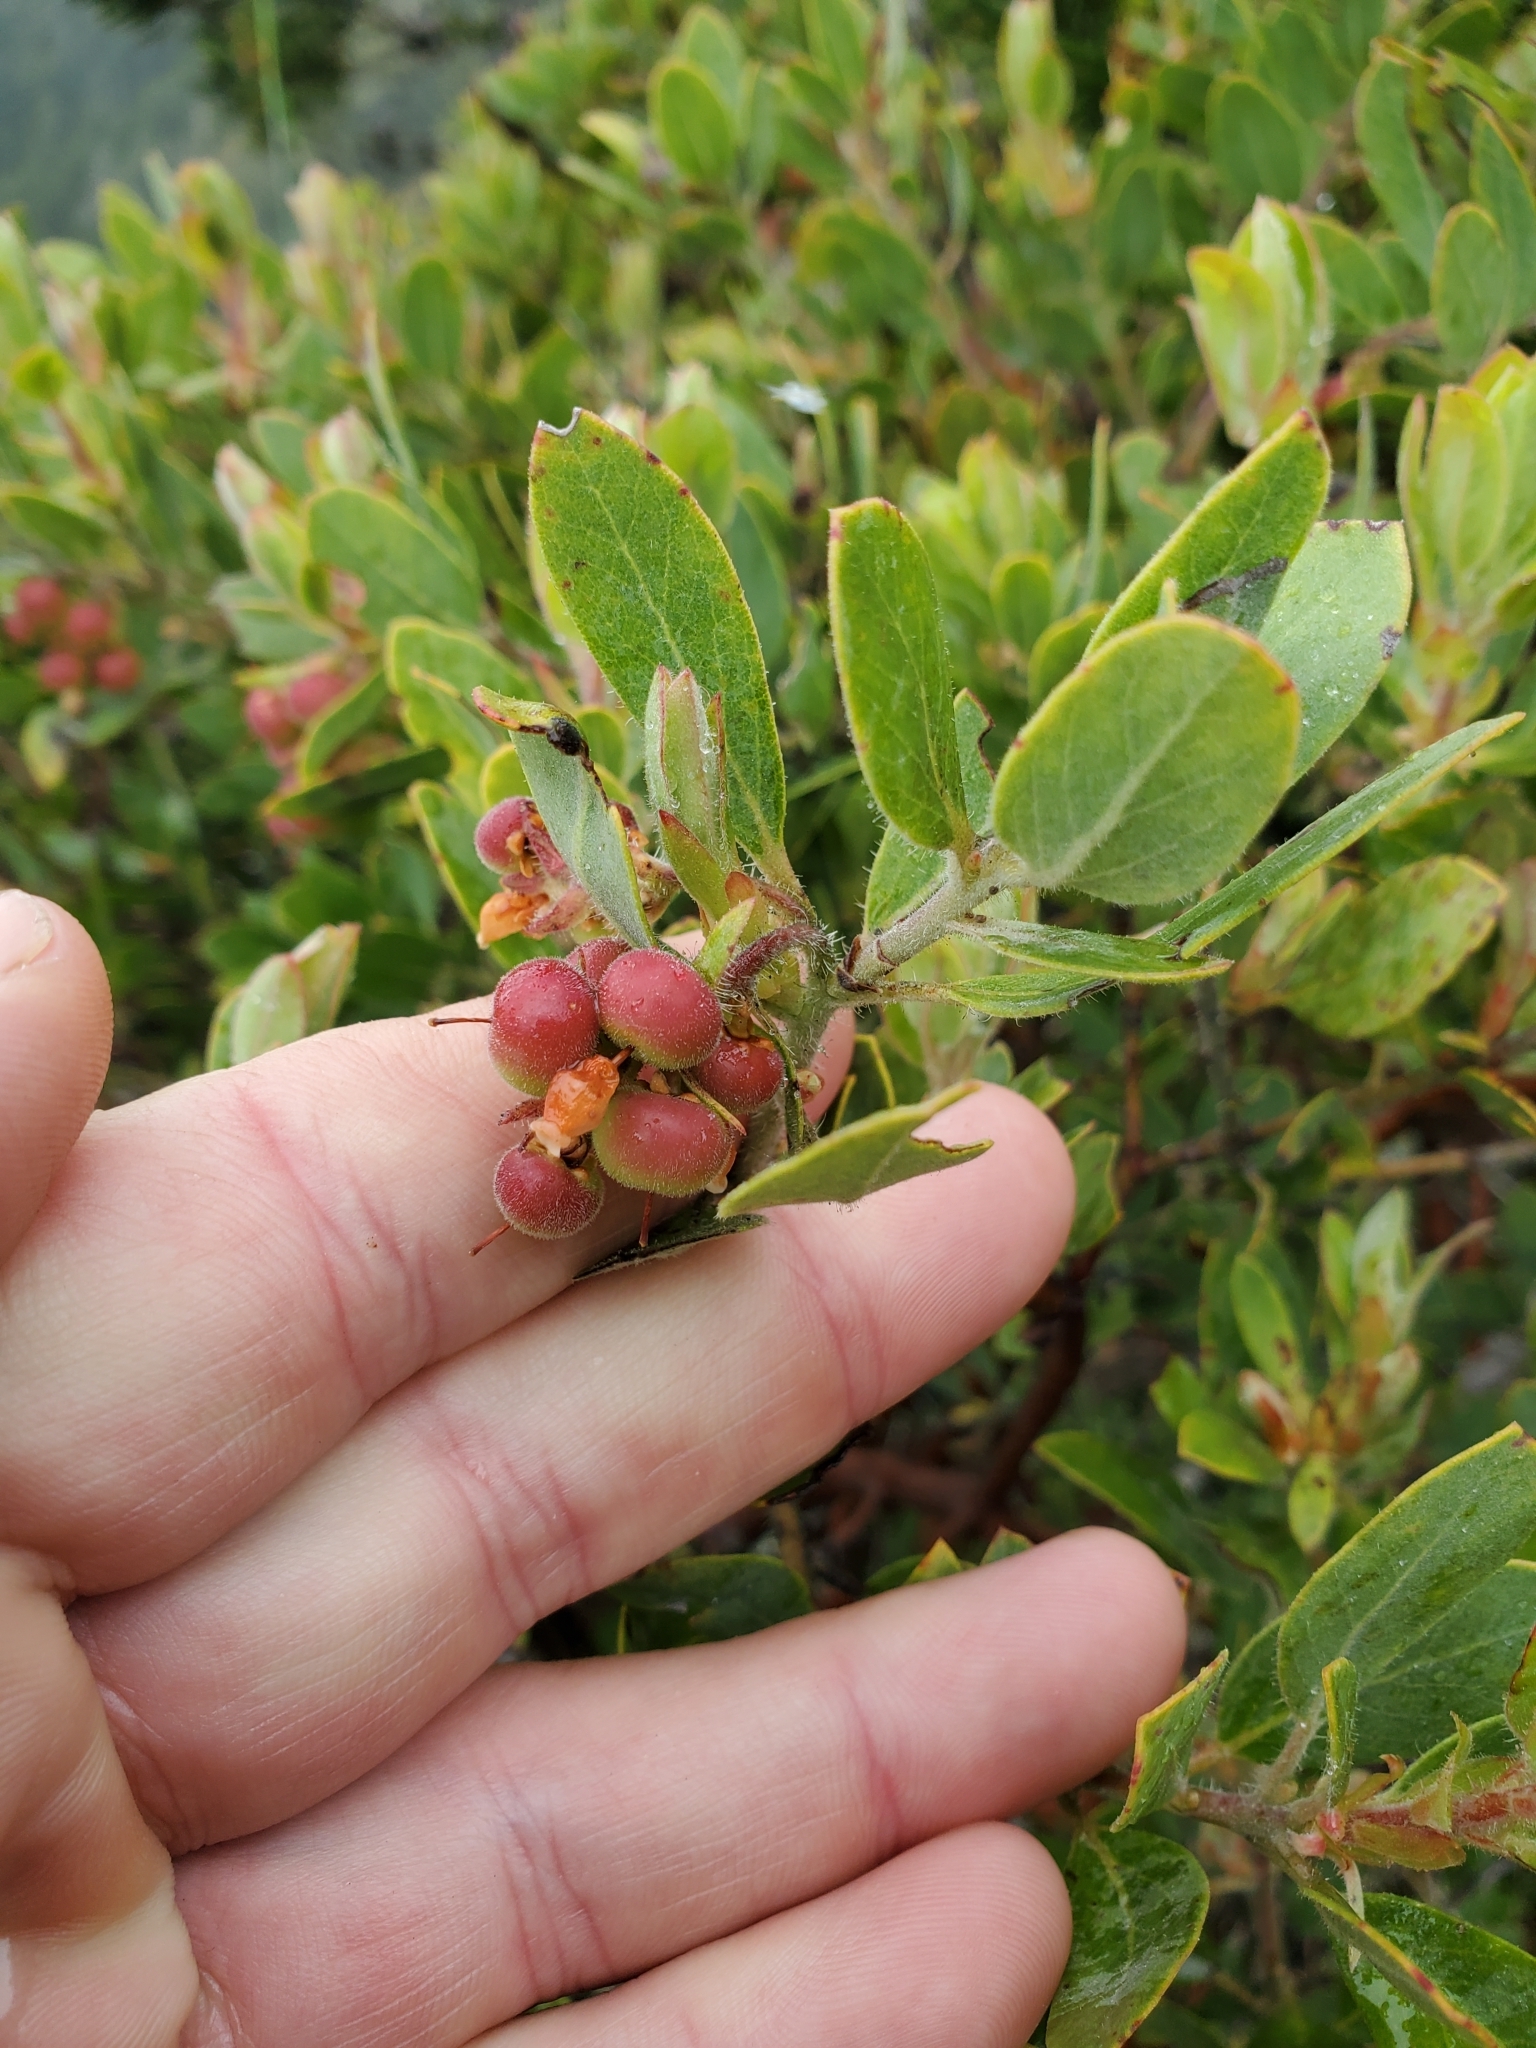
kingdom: Plantae
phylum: Tracheophyta
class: Magnoliopsida
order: Ericales
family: Ericaceae
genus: Arctostaphylos
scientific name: Arctostaphylos columbiana
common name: Bristly bearberry
